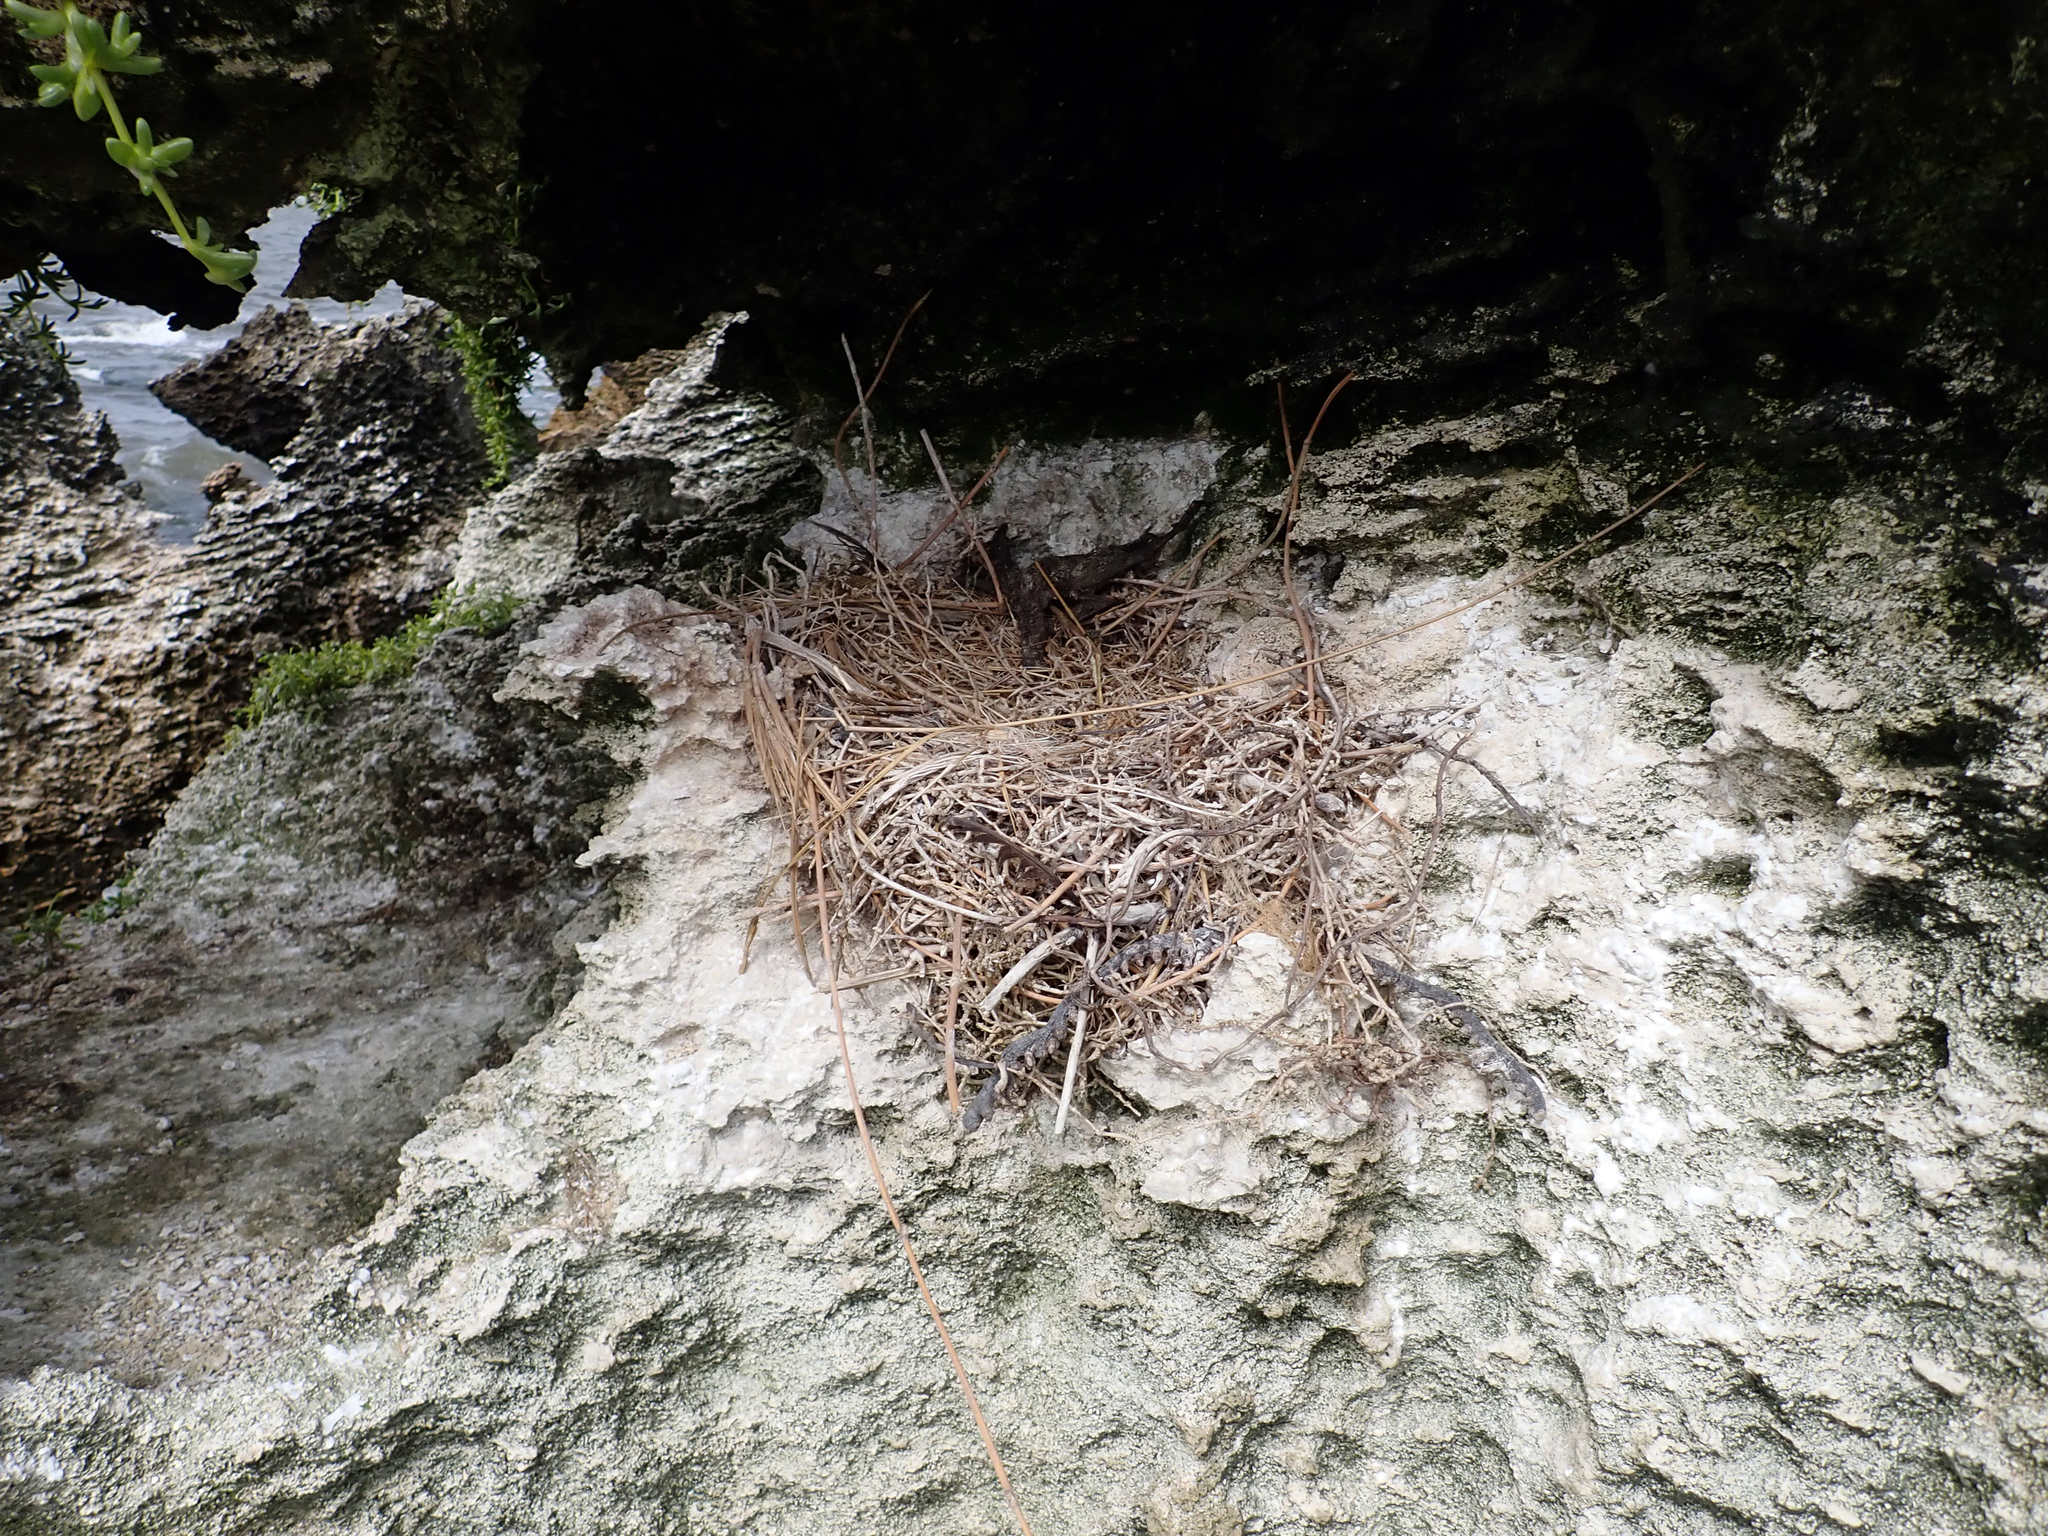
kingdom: Animalia
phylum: Chordata
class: Aves
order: Suliformes
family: Phalacrocoracidae
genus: Phalacrocorax
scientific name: Phalacrocorax featherstoni
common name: Pitt shag
